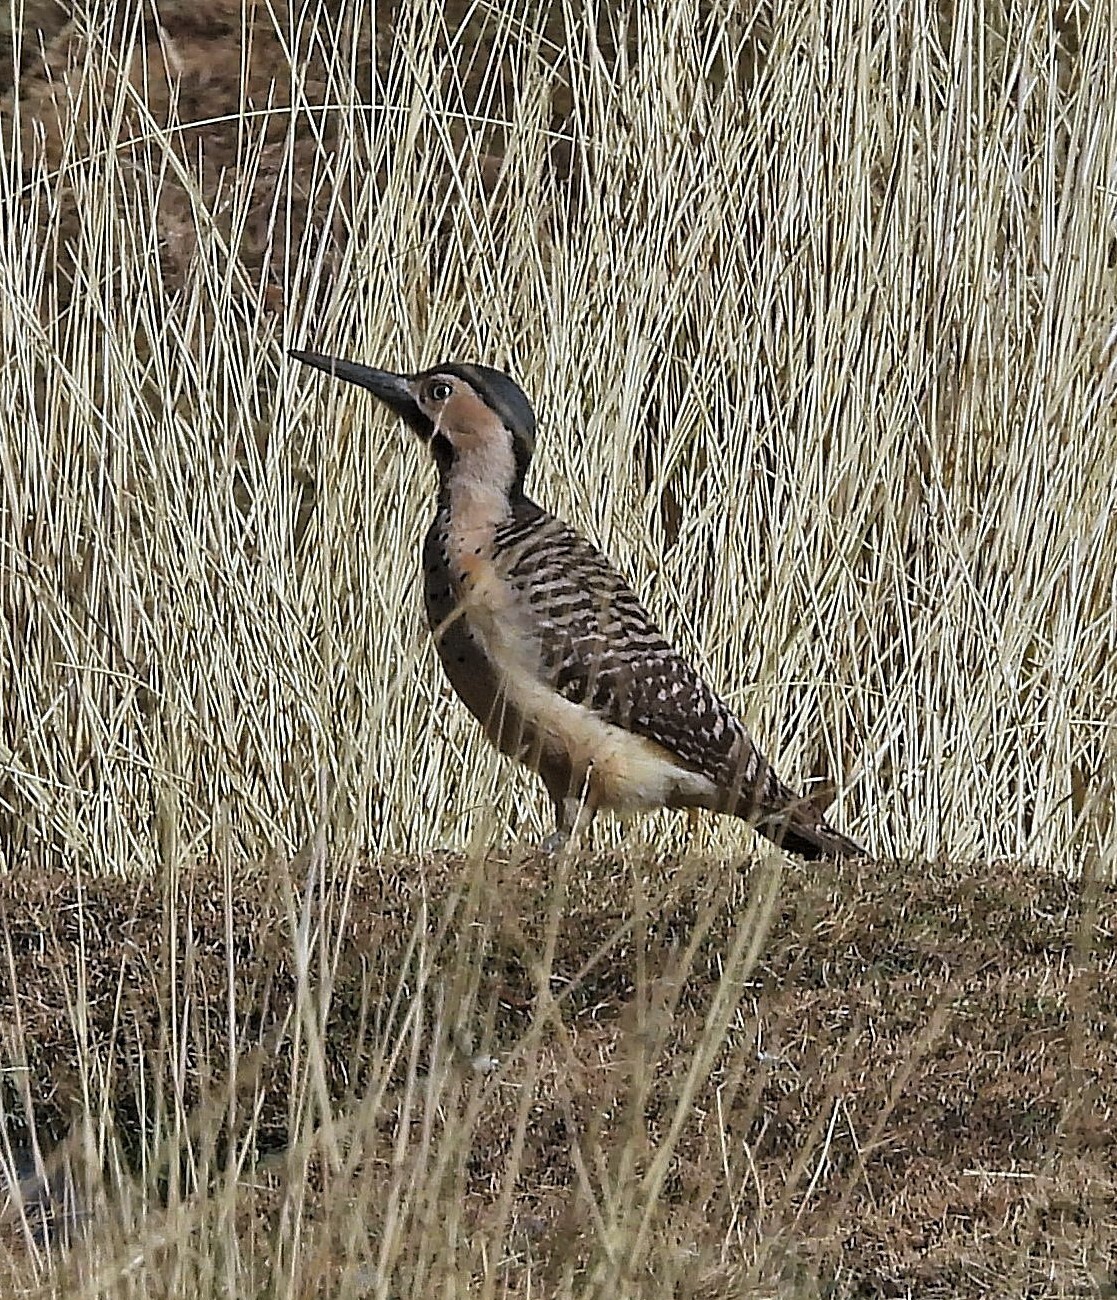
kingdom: Animalia
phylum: Chordata
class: Aves
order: Piciformes
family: Picidae
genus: Colaptes
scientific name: Colaptes rupicola
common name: Andean flicker
